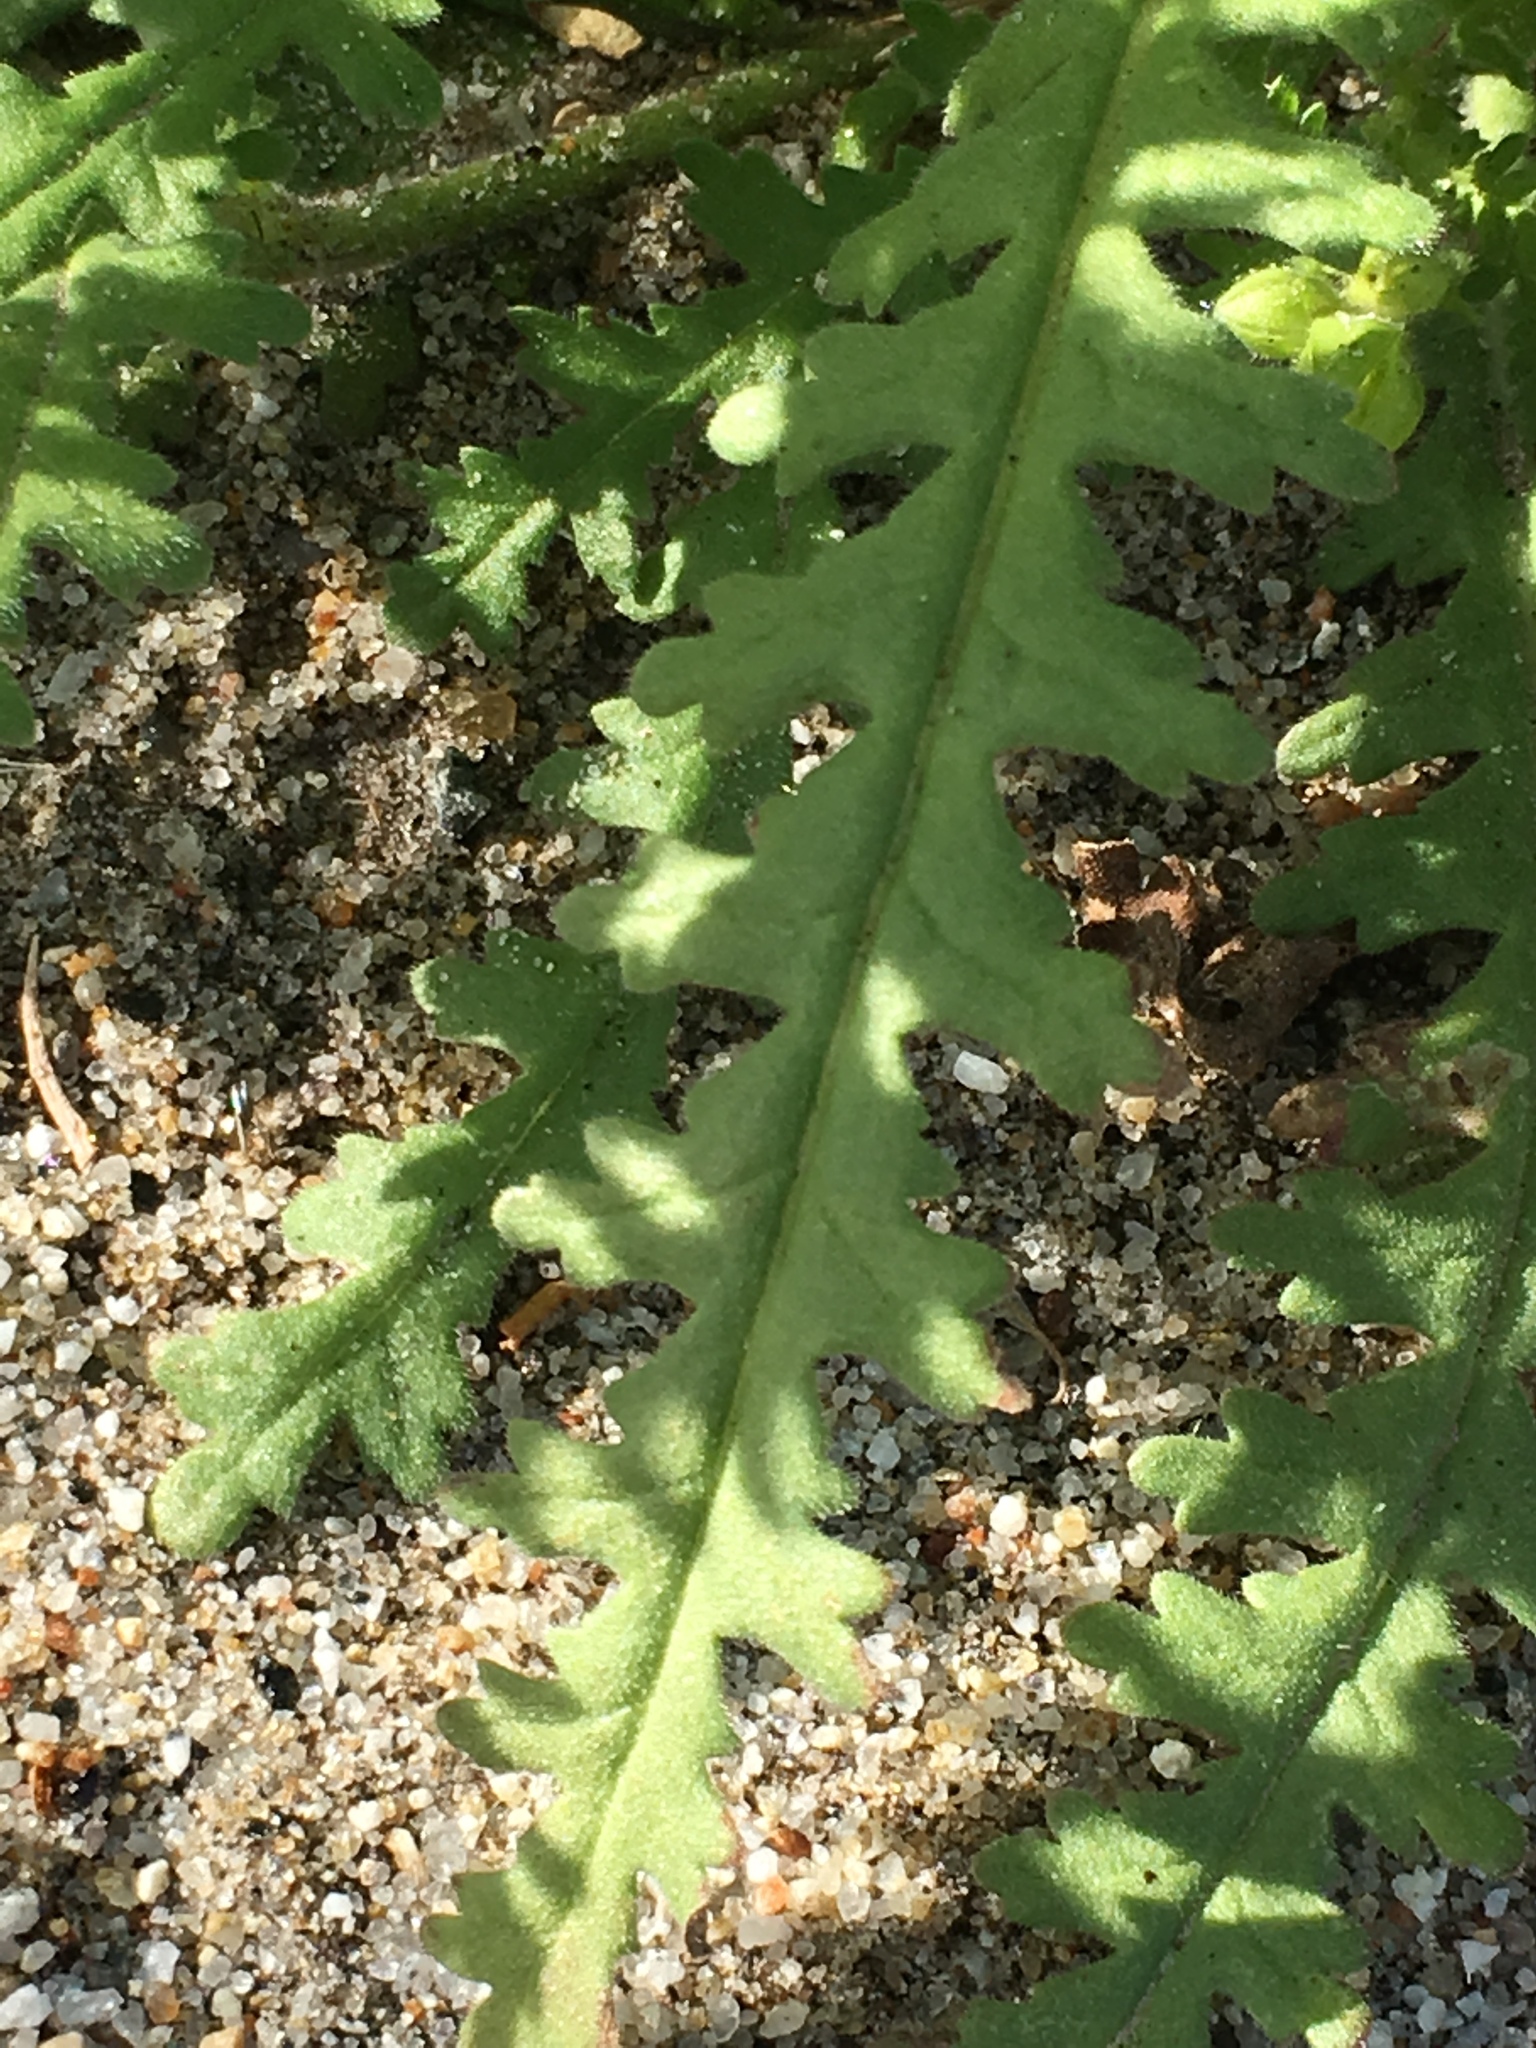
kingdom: Plantae
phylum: Tracheophyta
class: Magnoliopsida
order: Boraginales
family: Hydrophyllaceae
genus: Emmenanthe
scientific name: Emmenanthe penduliflora
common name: Whispering-bells
